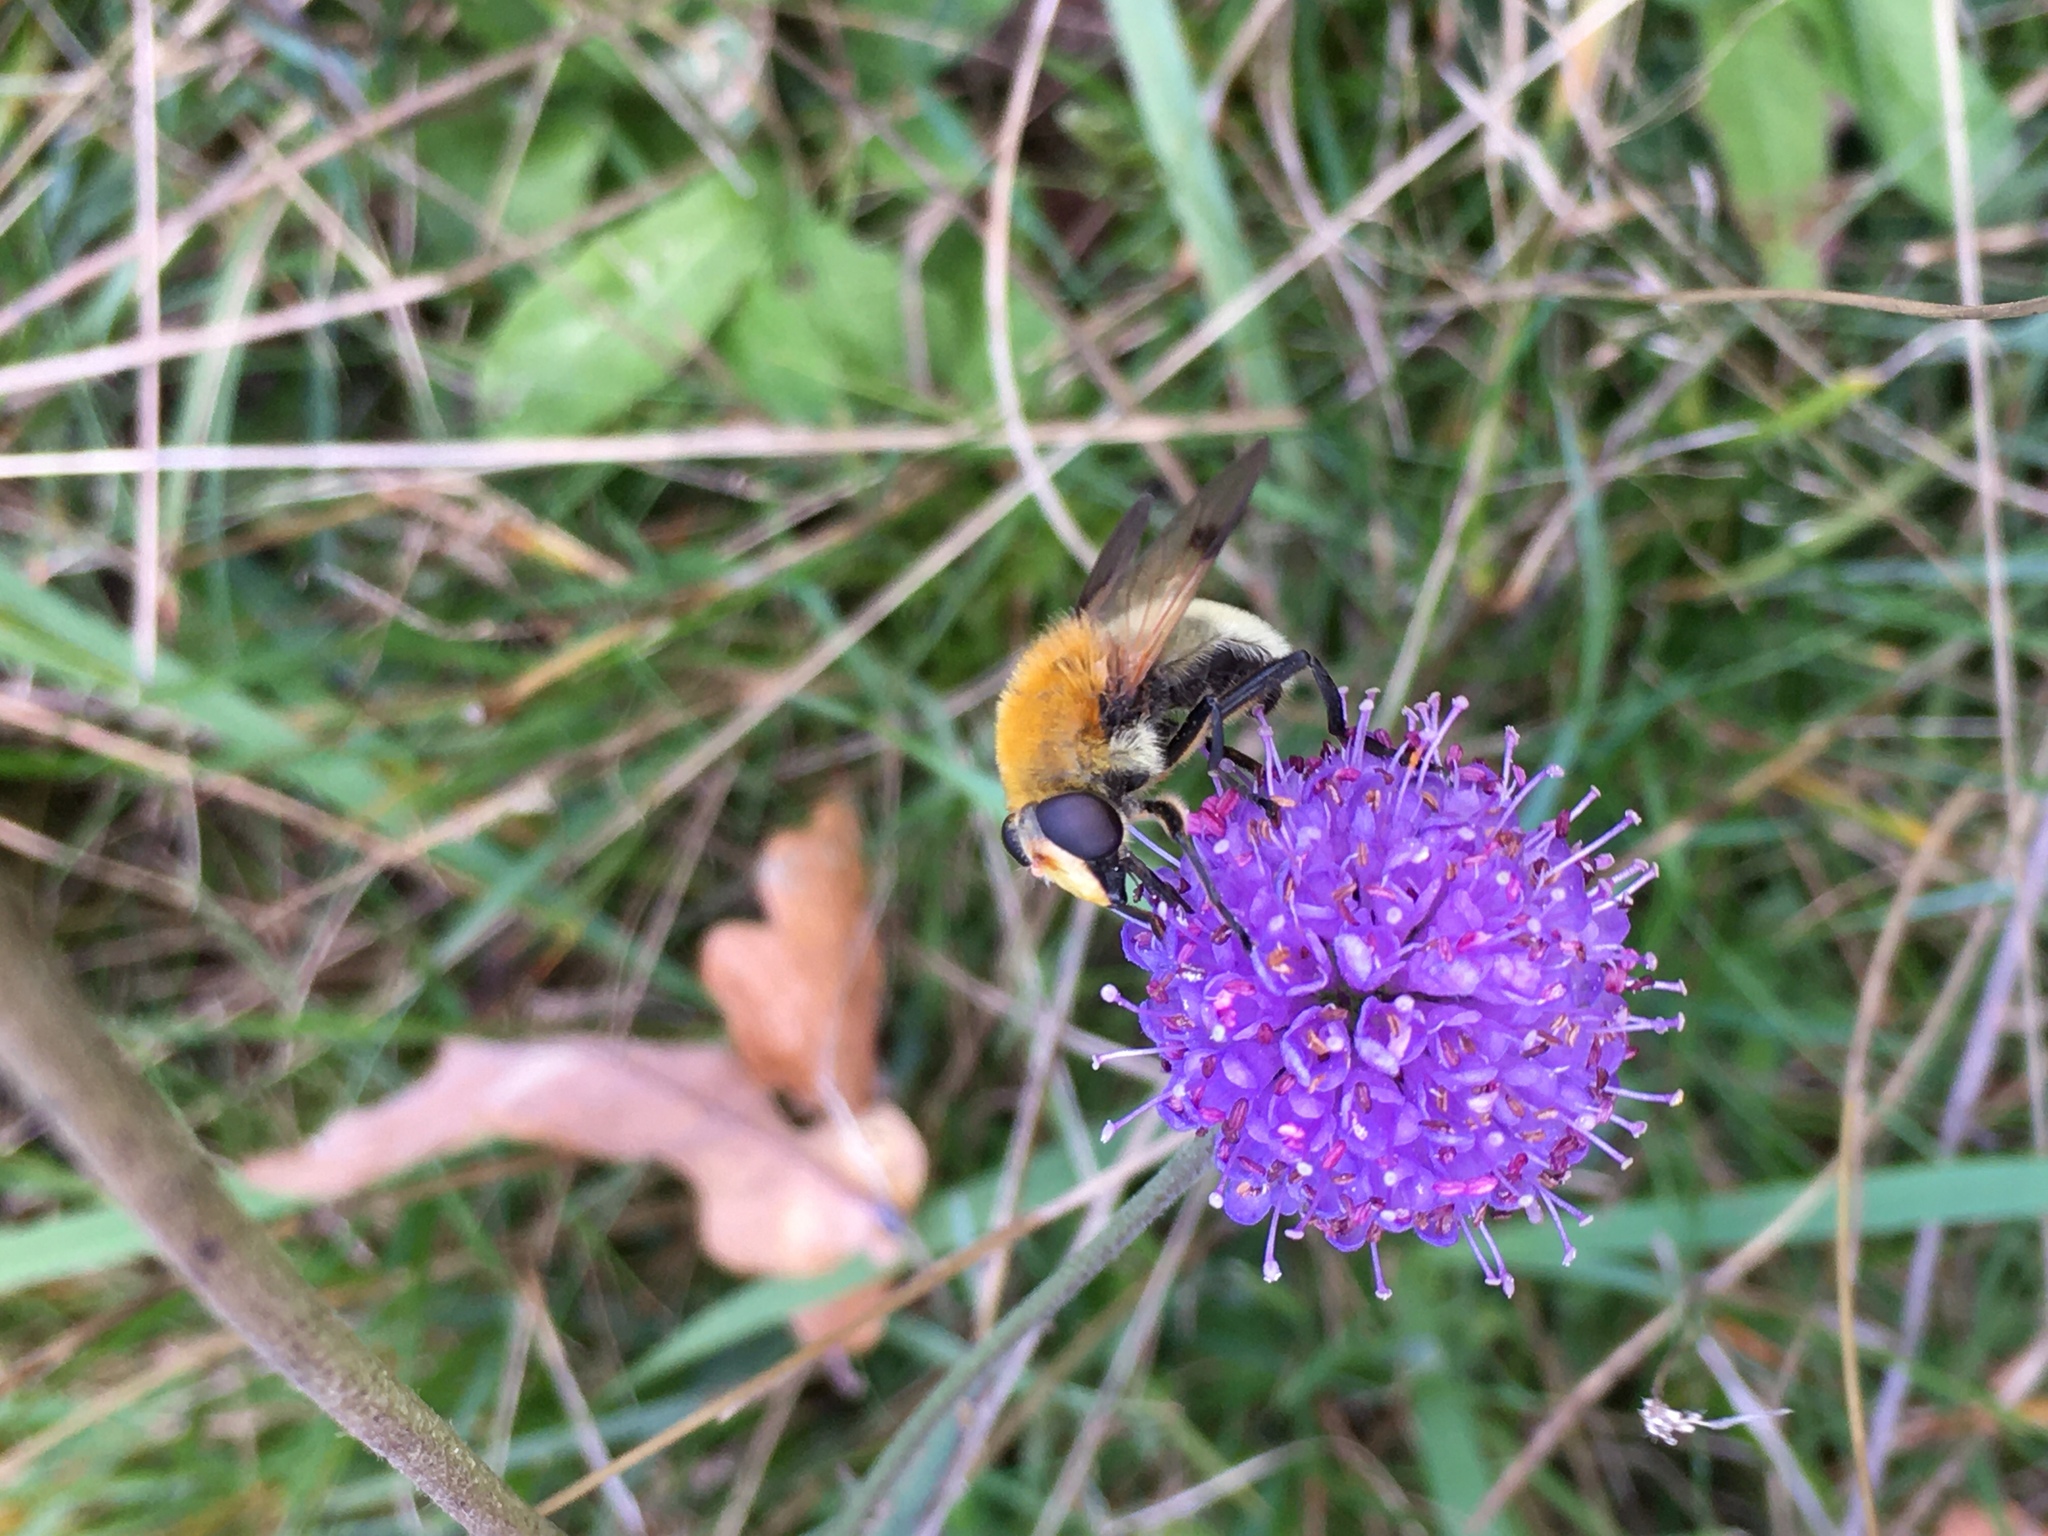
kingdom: Animalia
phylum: Arthropoda
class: Insecta
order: Diptera
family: Syrphidae
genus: Sericomyia
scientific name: Sericomyia superbiens
